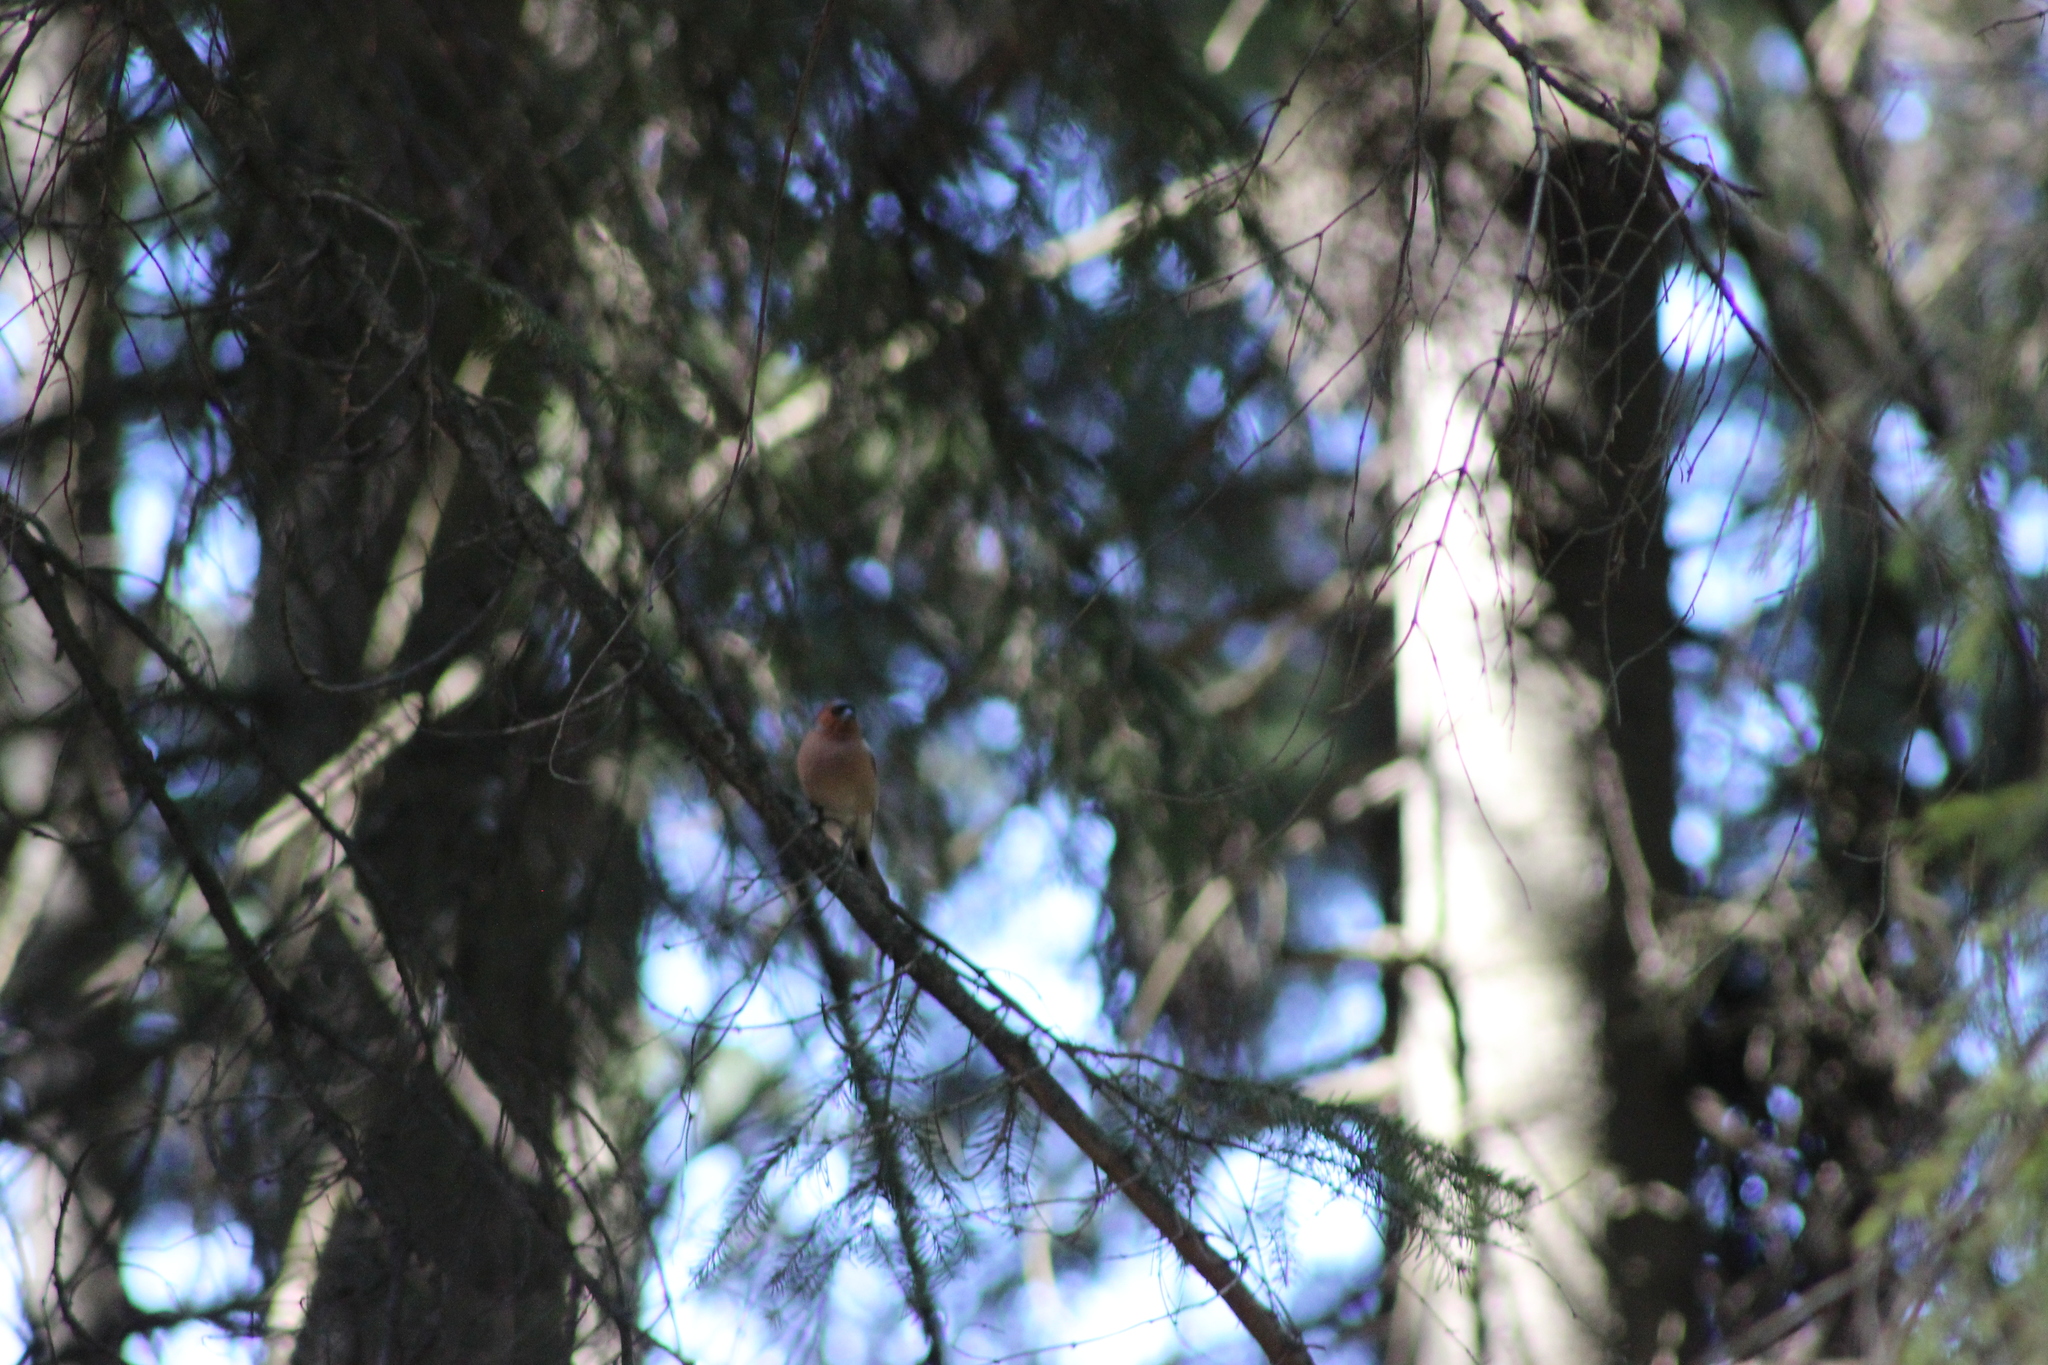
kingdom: Animalia
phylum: Chordata
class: Aves
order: Passeriformes
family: Fringillidae
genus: Fringilla
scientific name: Fringilla coelebs
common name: Common chaffinch
